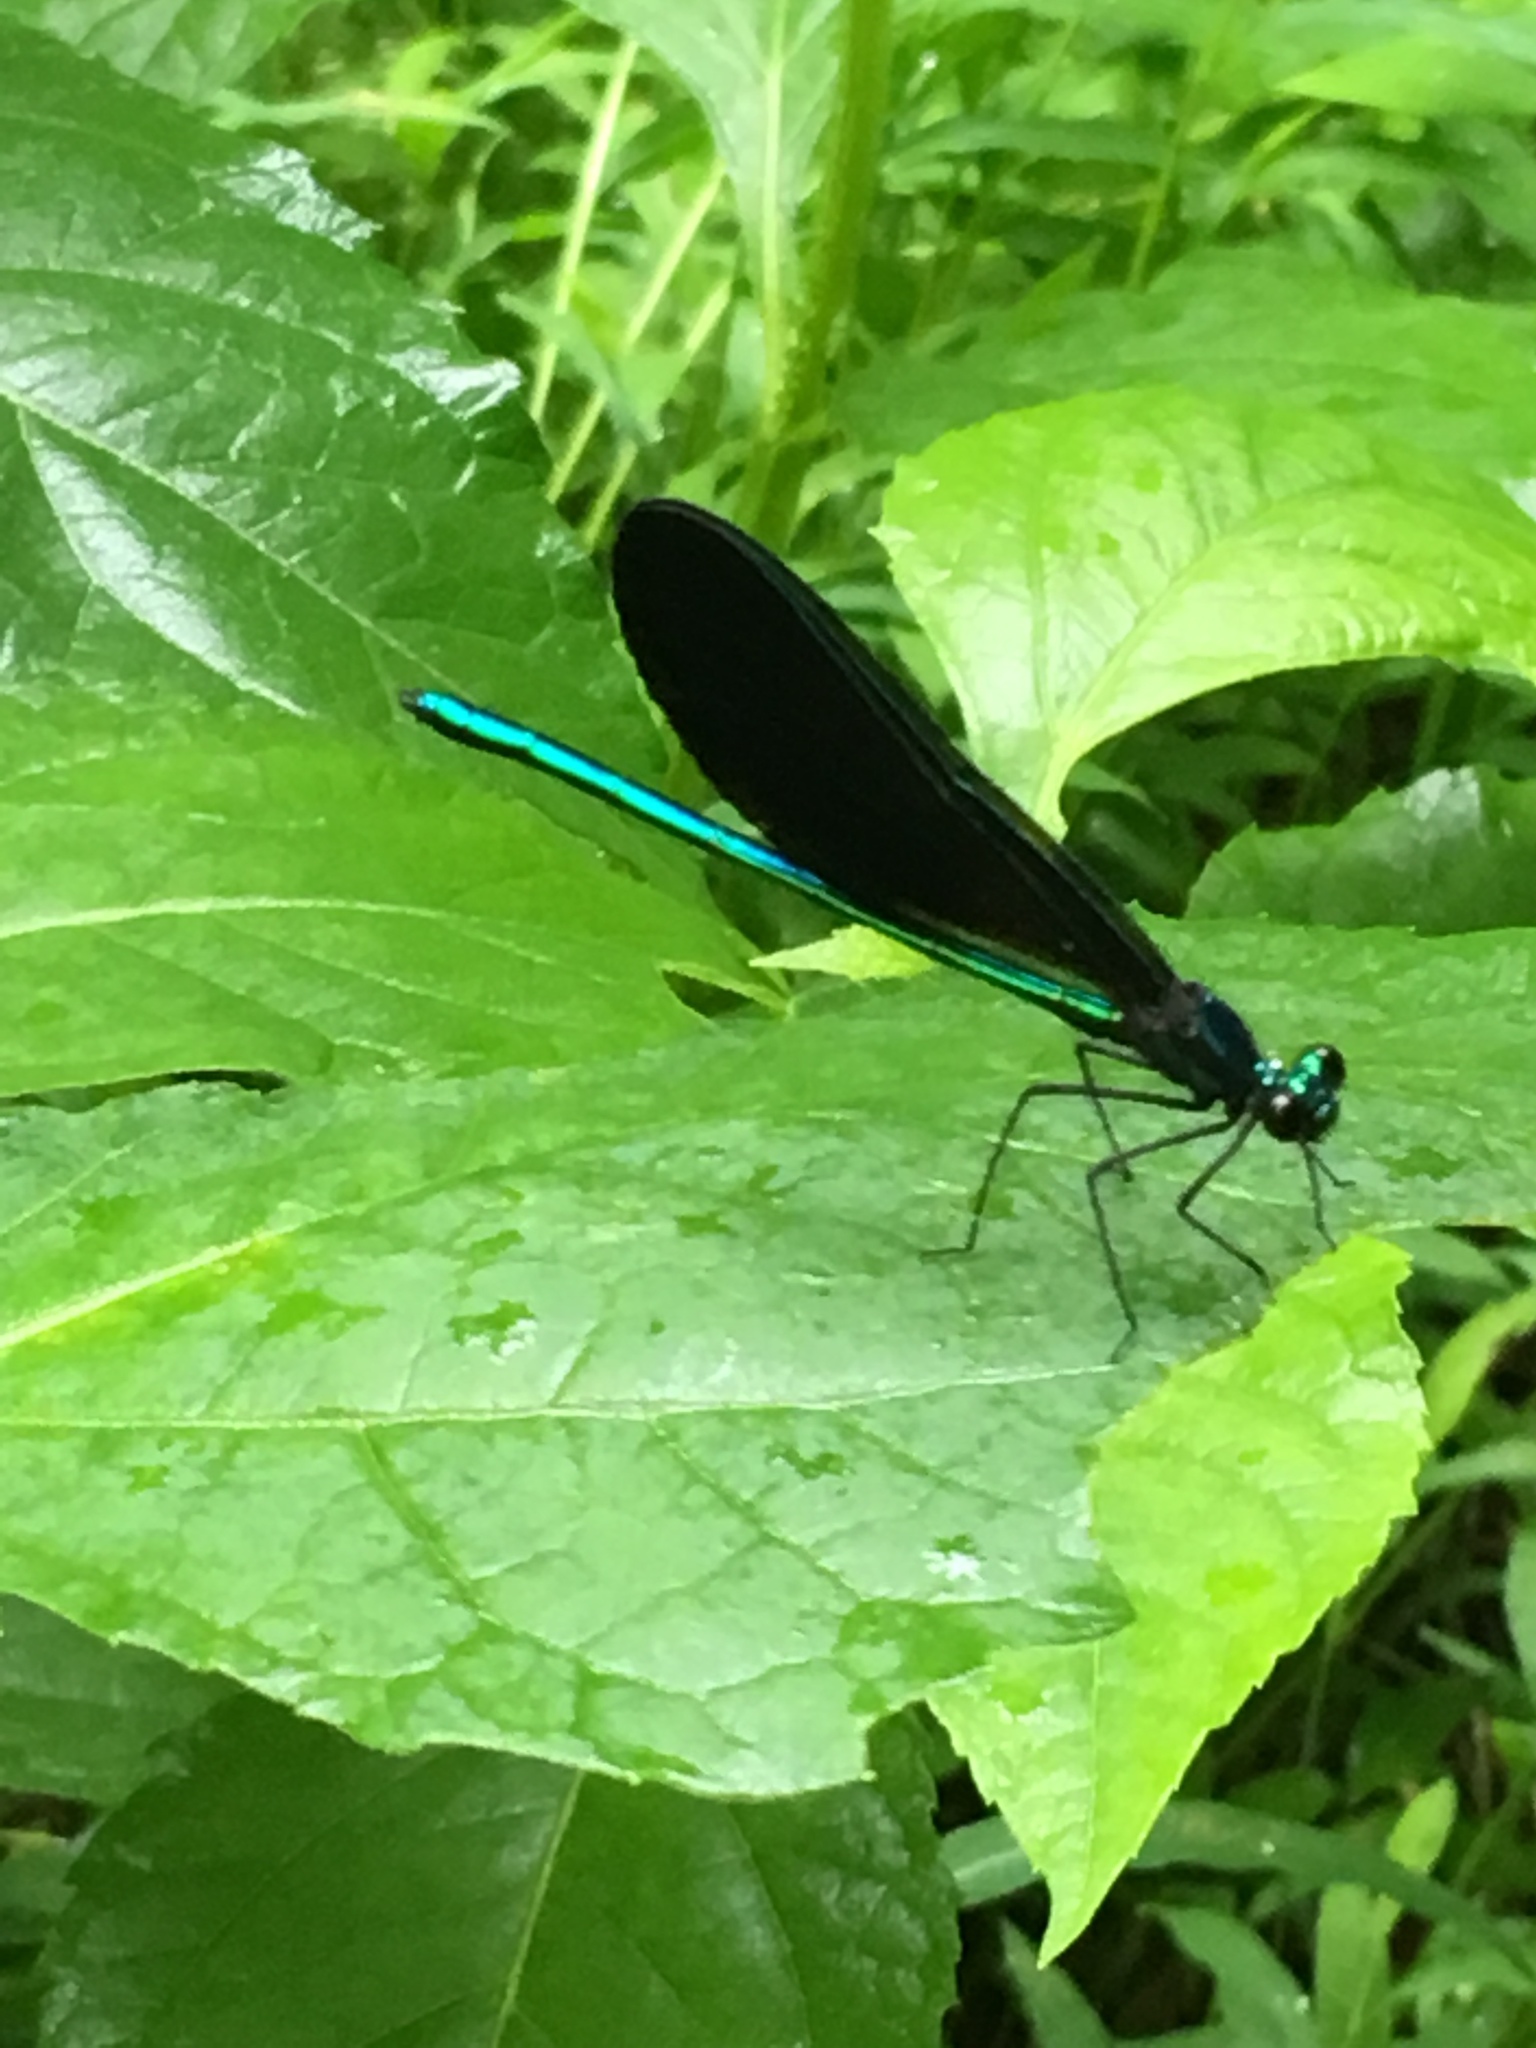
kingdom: Animalia
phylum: Arthropoda
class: Insecta
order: Odonata
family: Calopterygidae
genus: Calopteryx
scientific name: Calopteryx maculata
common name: Ebony jewelwing
